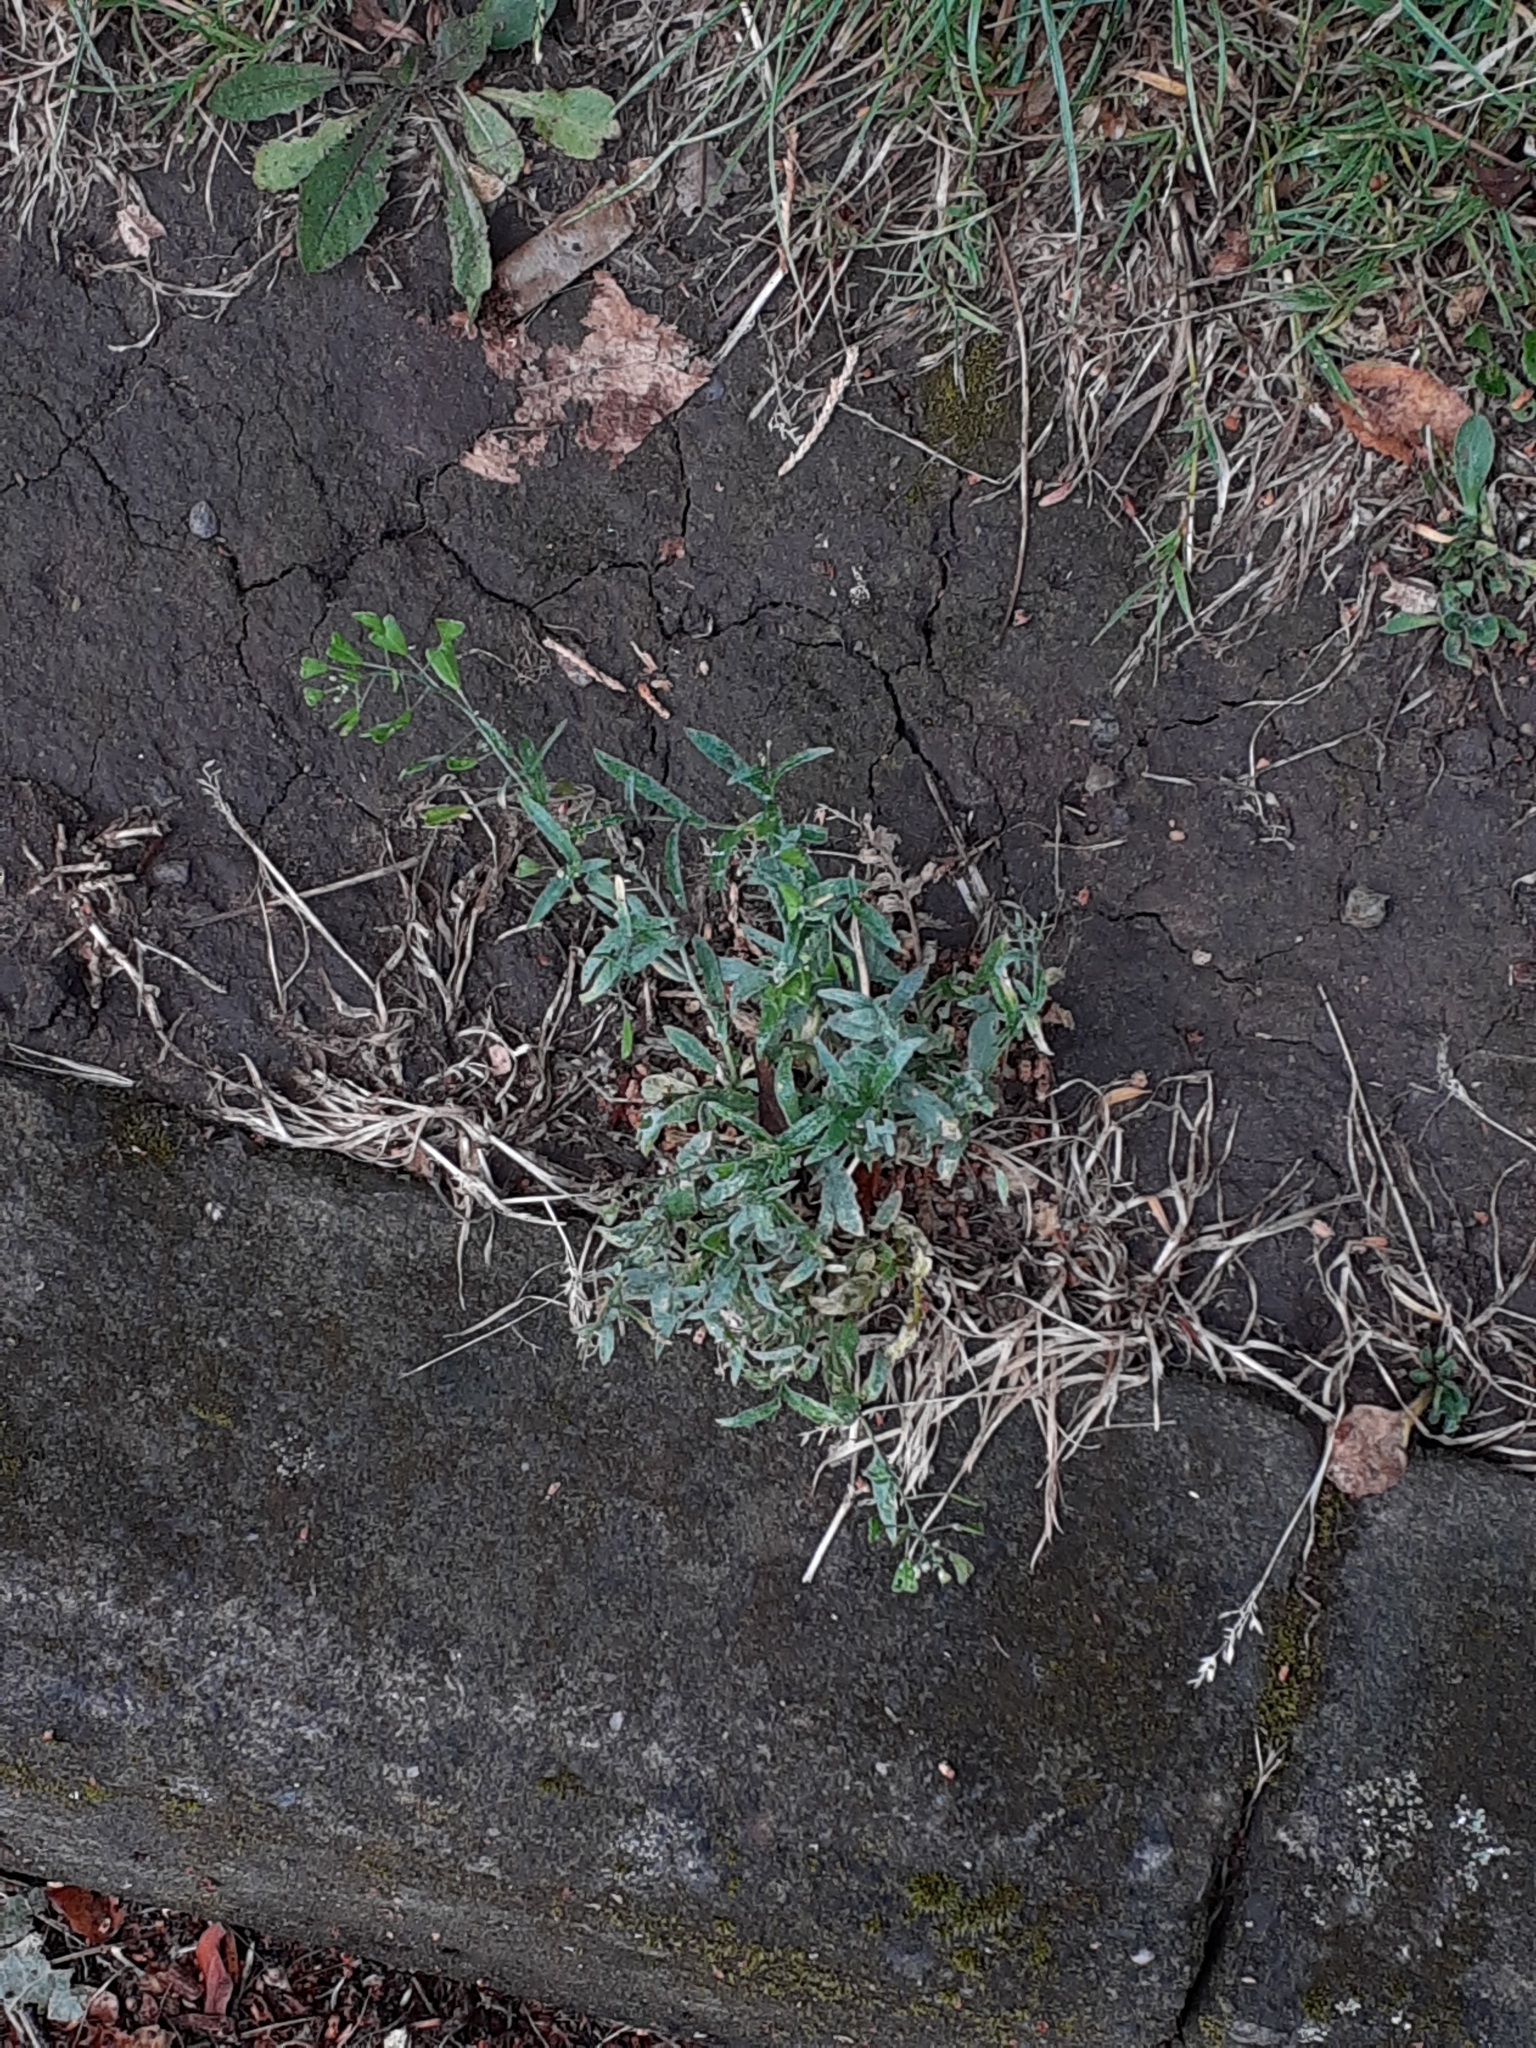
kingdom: Plantae
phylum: Tracheophyta
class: Magnoliopsida
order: Brassicales
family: Brassicaceae
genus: Capsella
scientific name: Capsella bursa-pastoris
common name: Shepherd's purse
